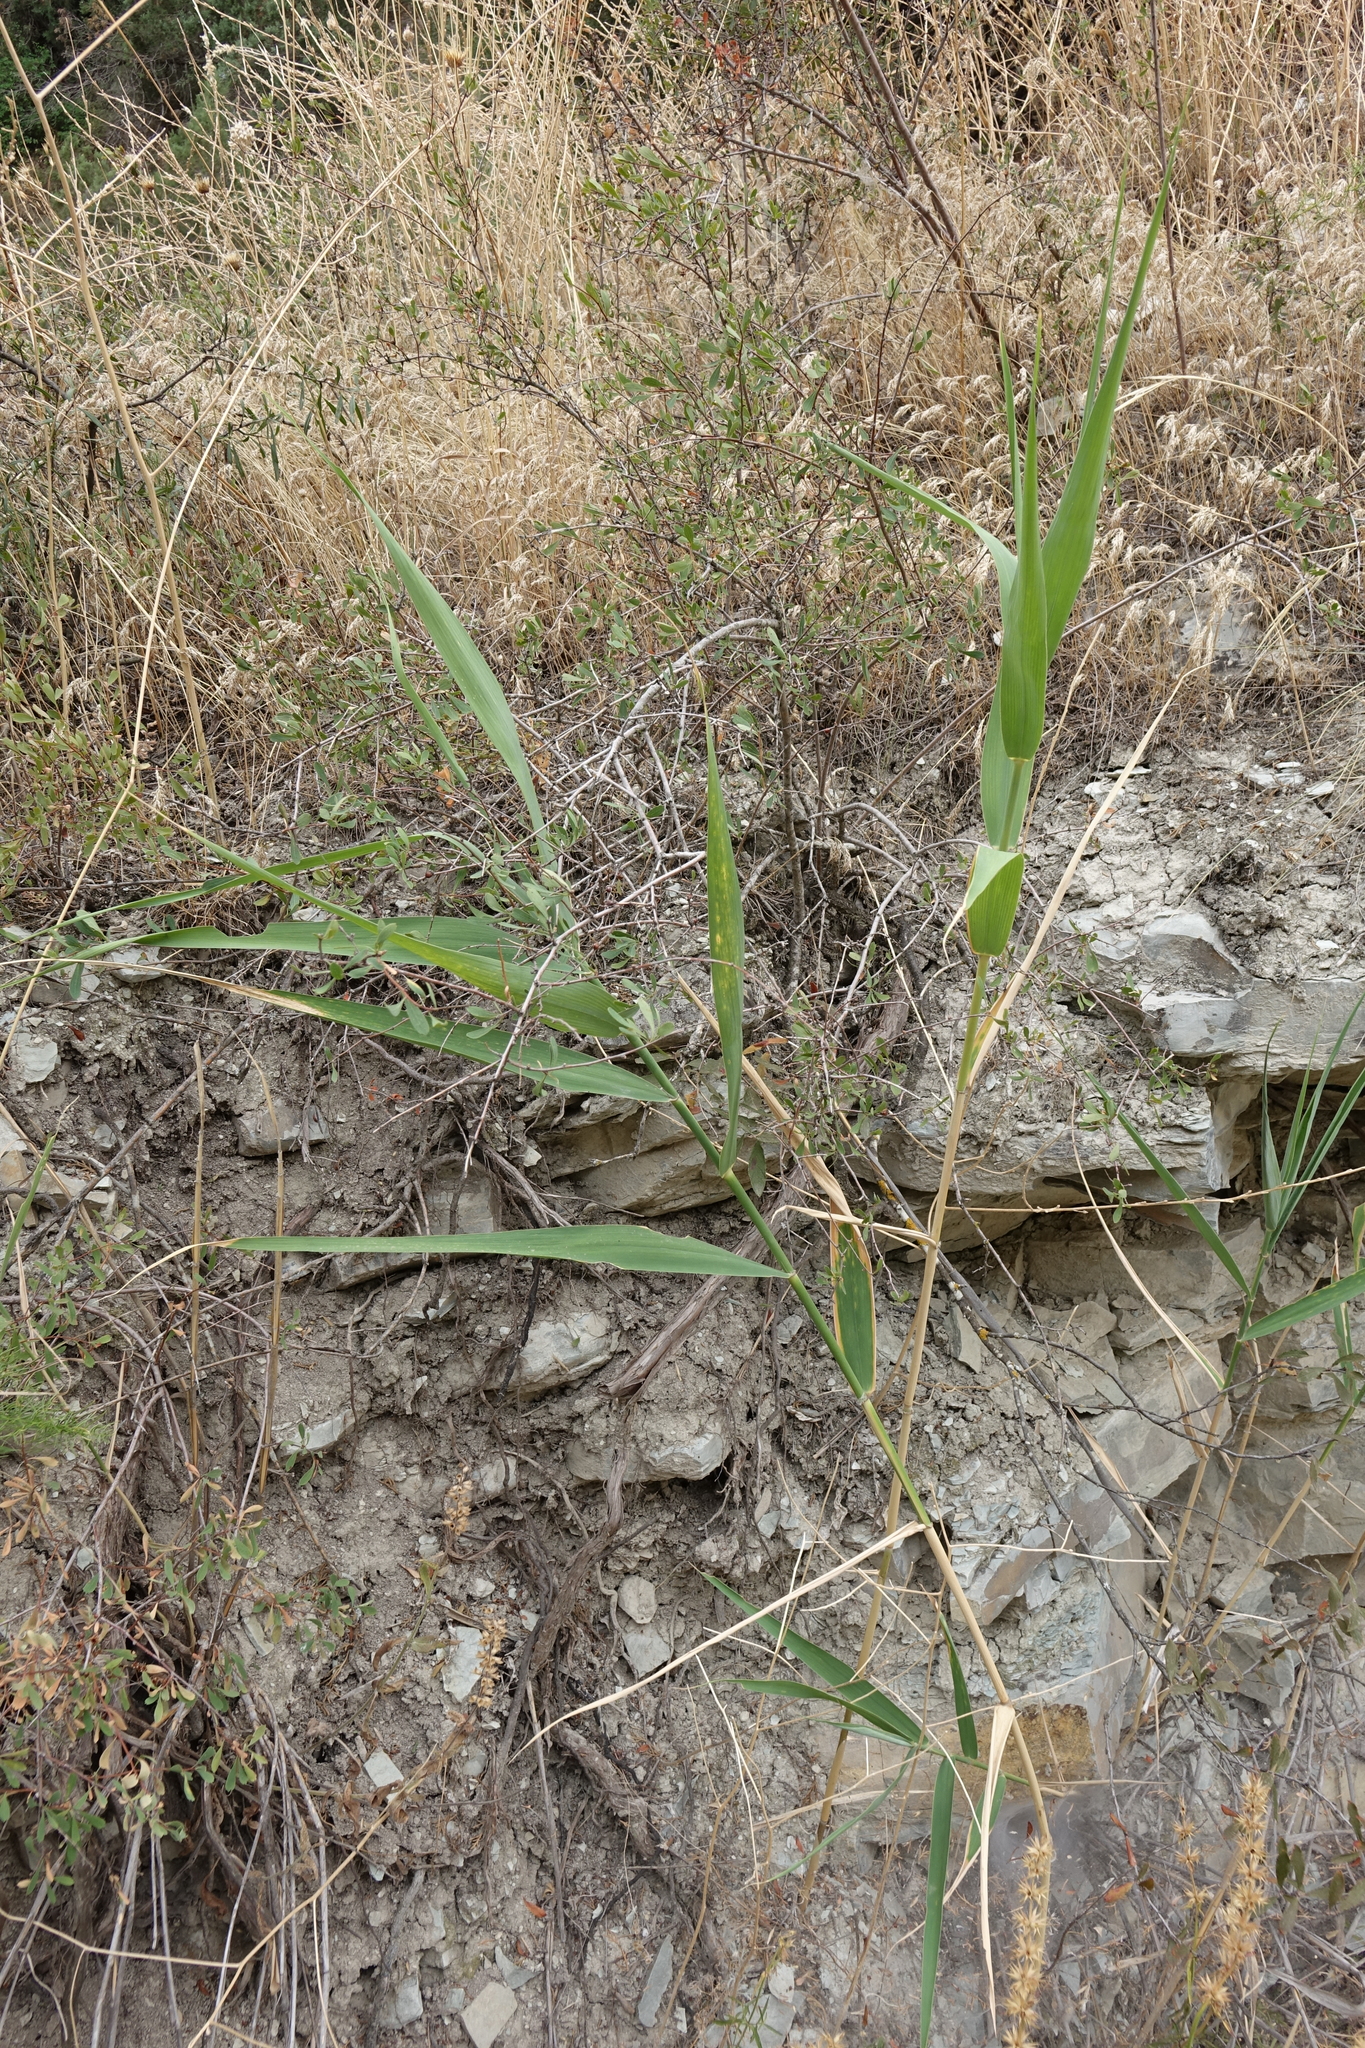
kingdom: Plantae
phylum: Tracheophyta
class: Liliopsida
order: Poales
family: Poaceae
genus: Phragmites
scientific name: Phragmites australis
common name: Common reed
